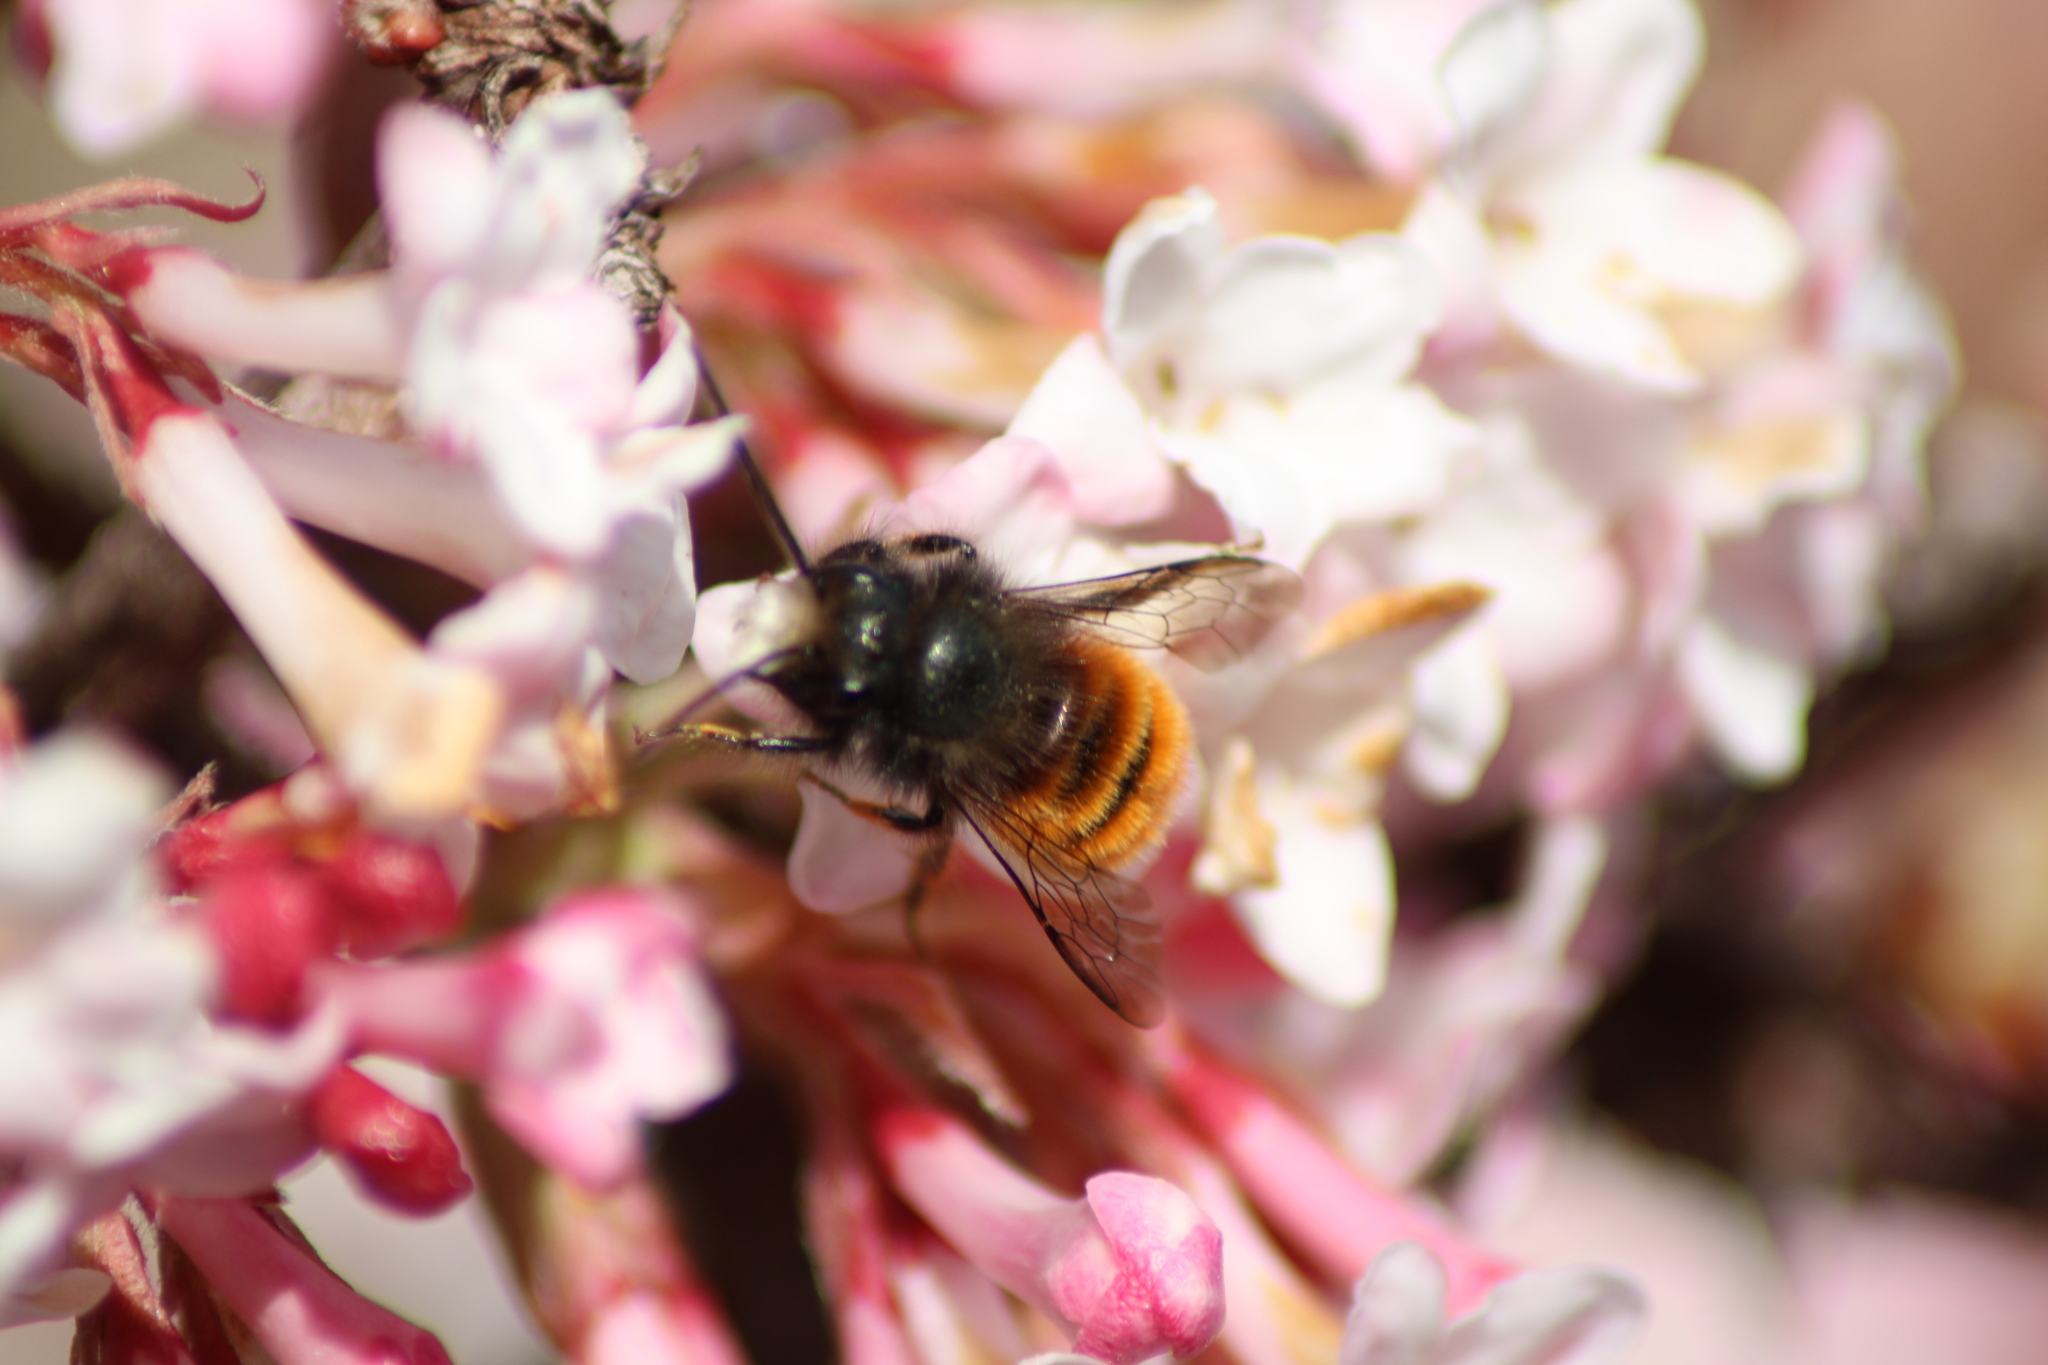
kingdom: Animalia
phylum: Arthropoda
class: Insecta
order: Hymenoptera
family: Megachilidae
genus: Osmia
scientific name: Osmia cornuta
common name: Mason bee
